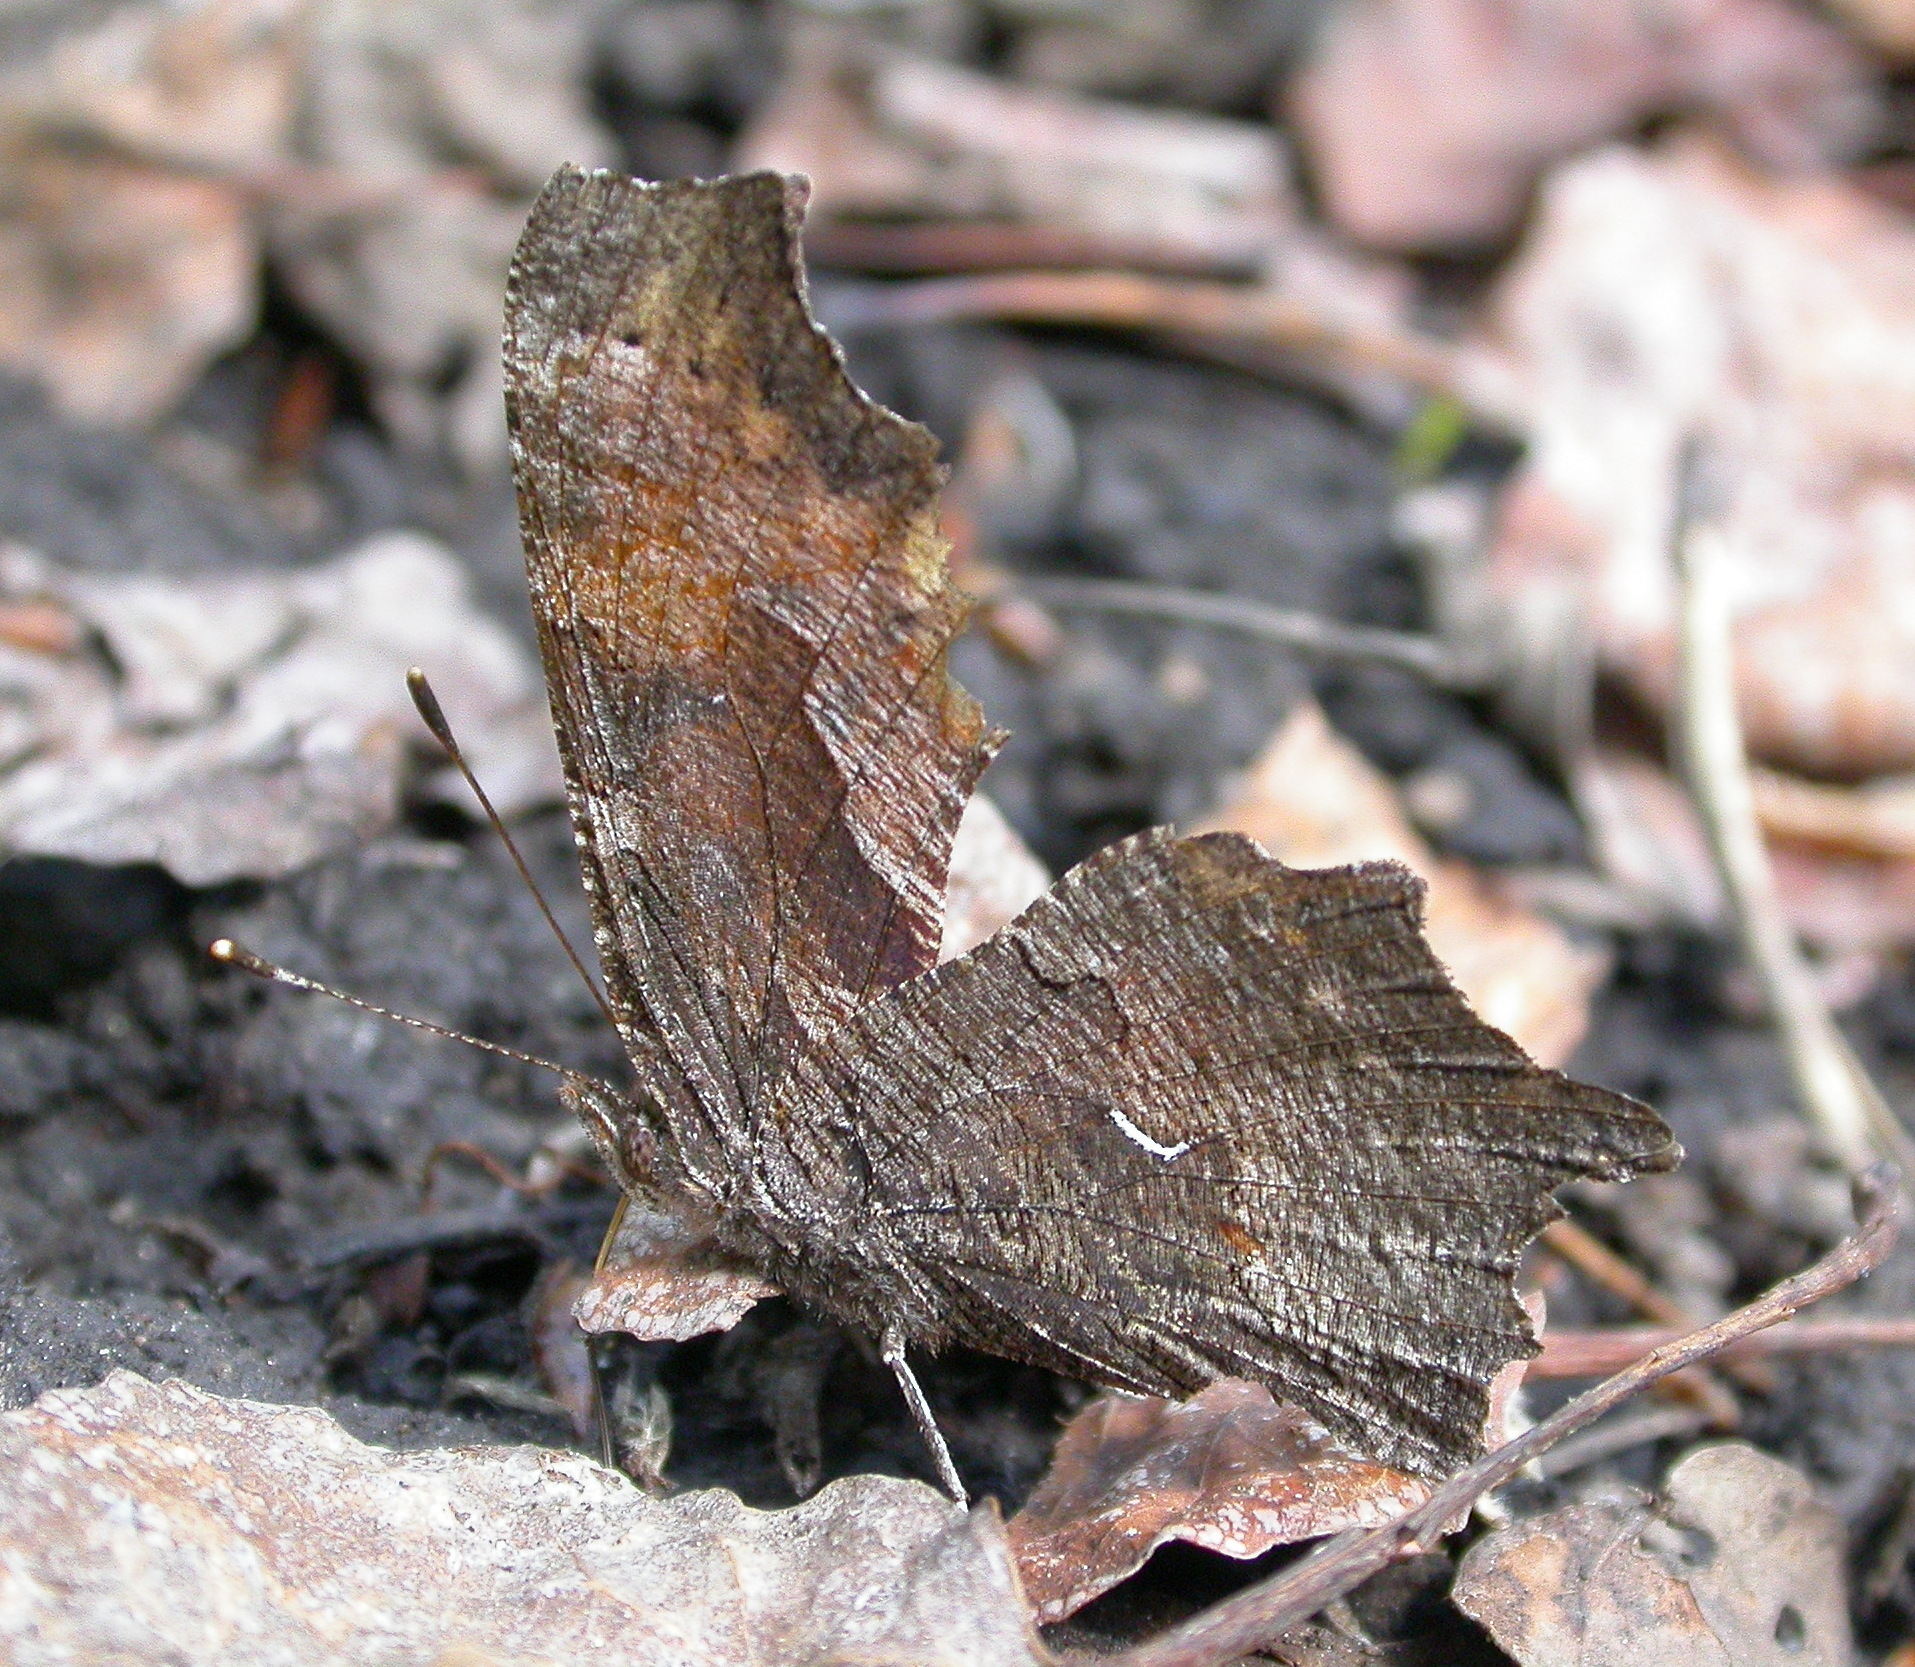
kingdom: Animalia
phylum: Arthropoda
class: Insecta
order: Lepidoptera
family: Nymphalidae
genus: Polygonia
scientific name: Polygonia progne
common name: Gray comma
